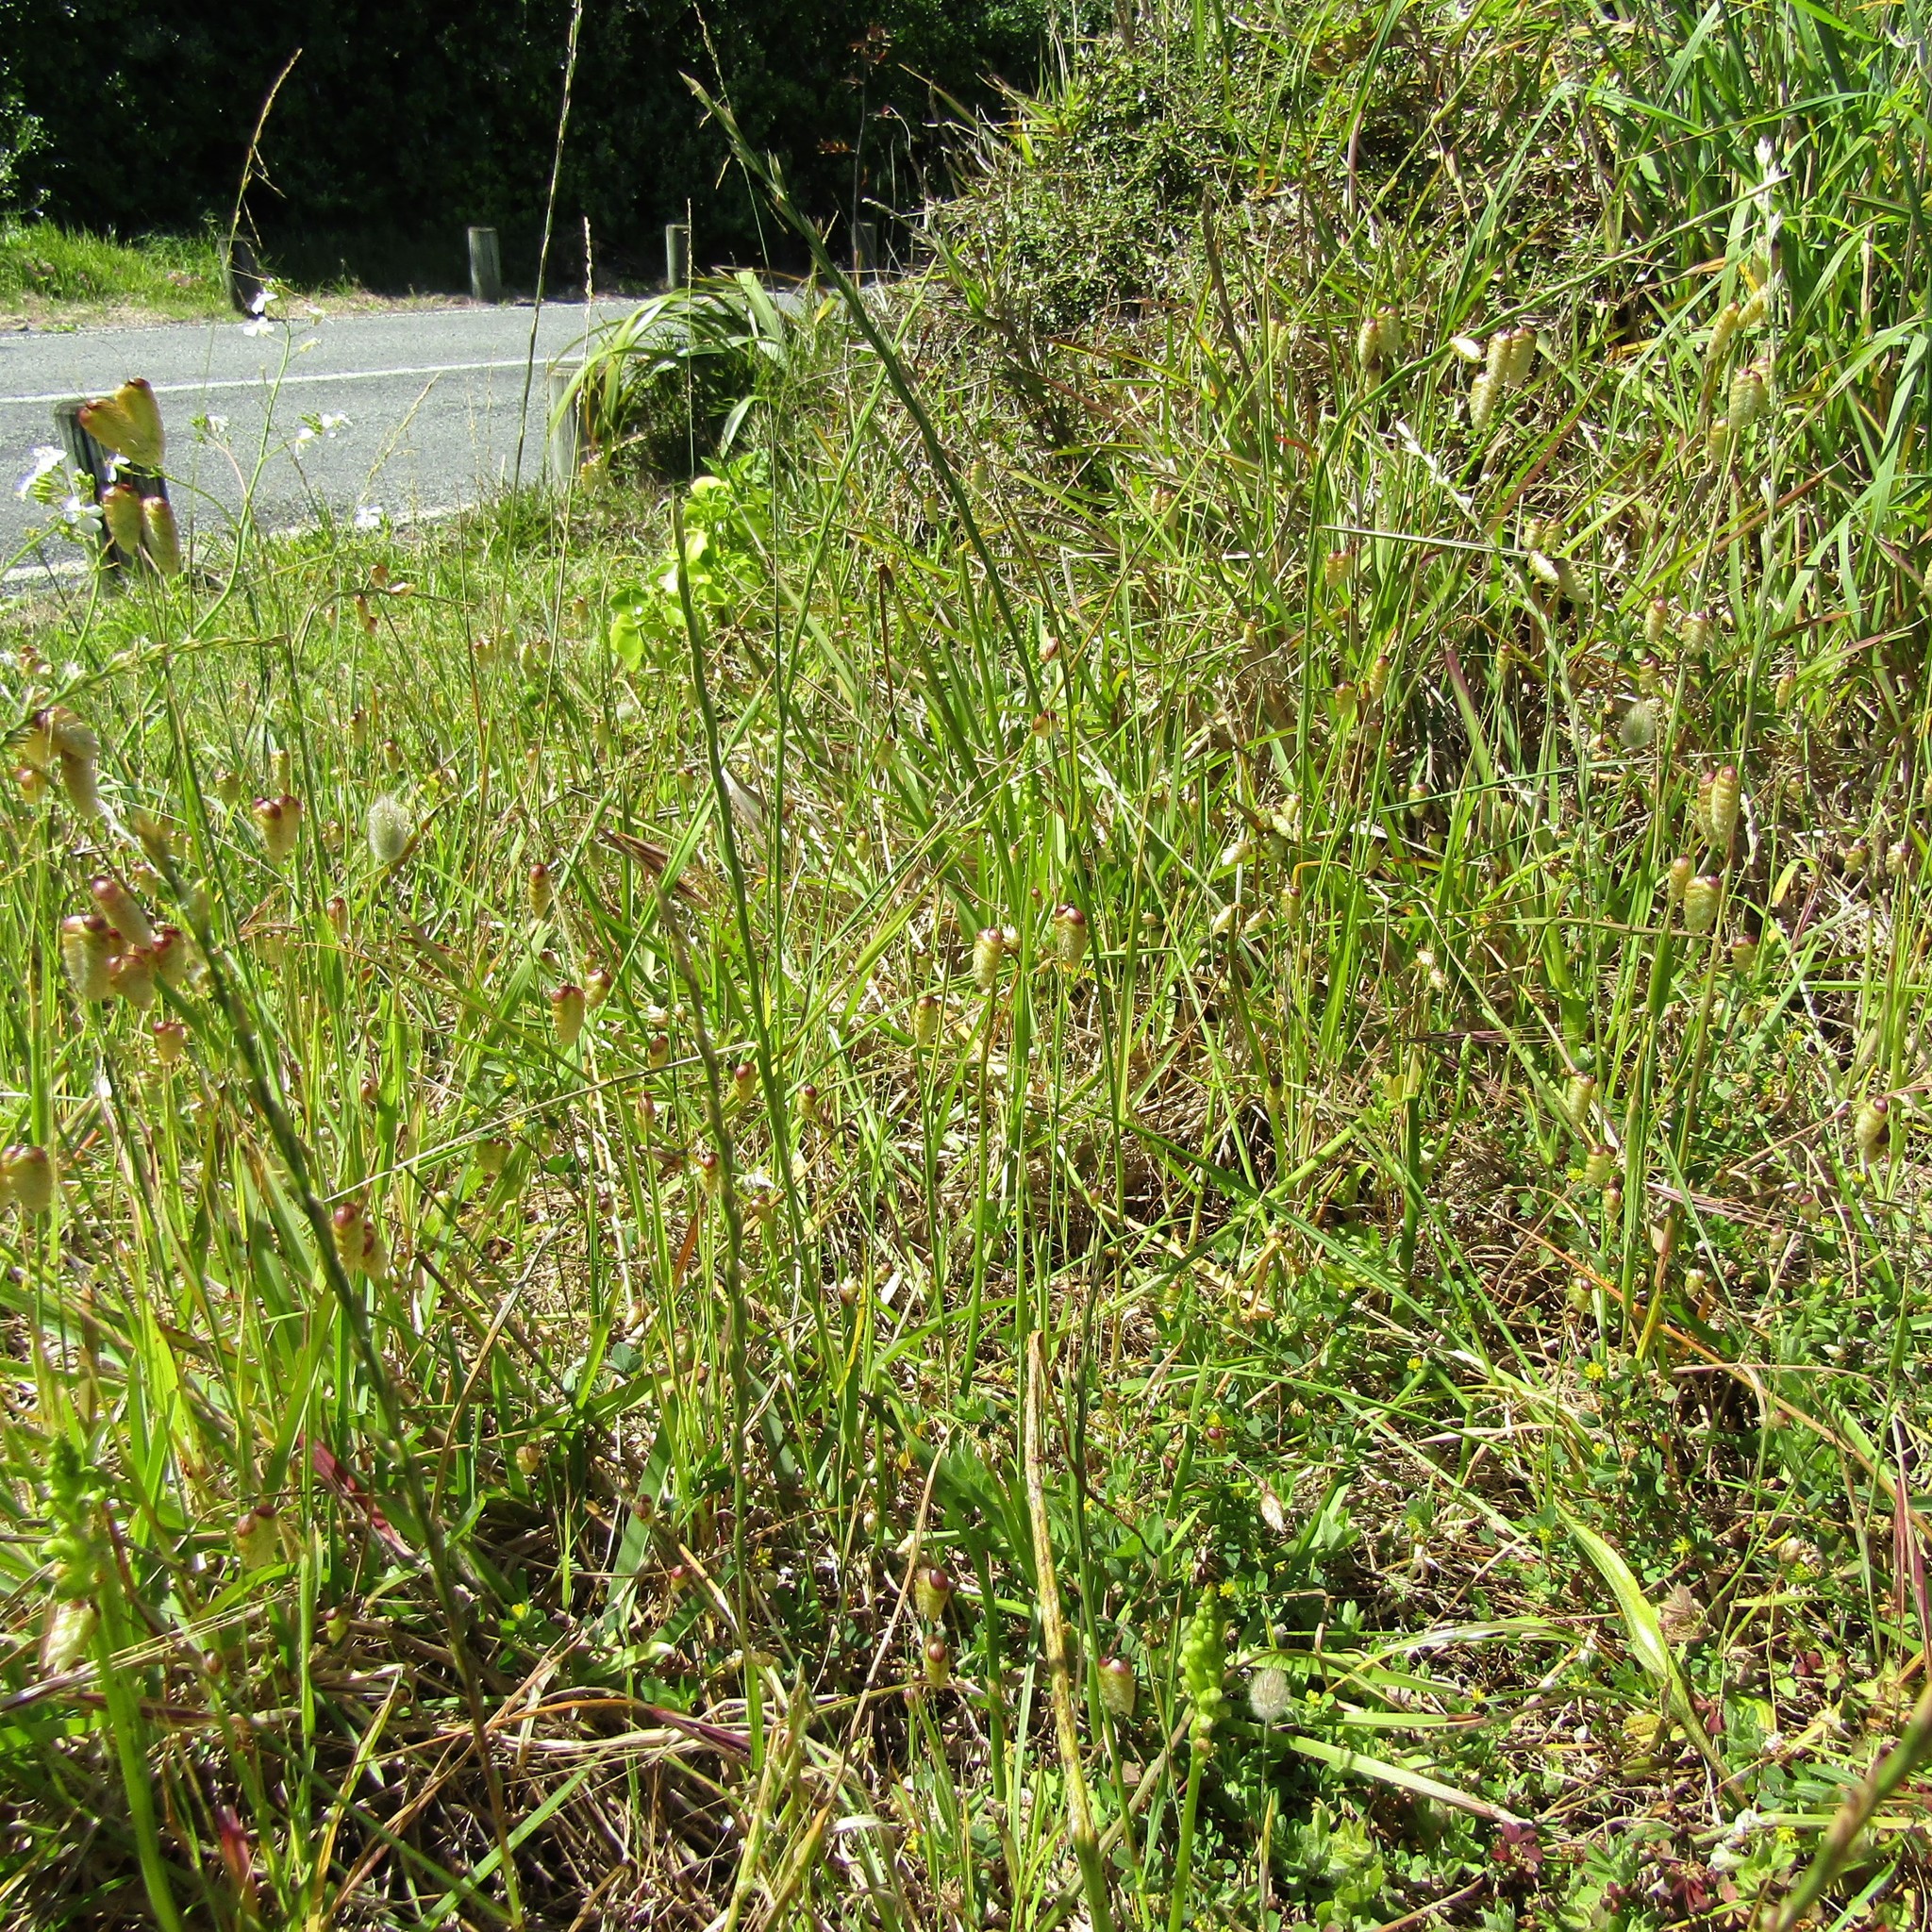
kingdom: Plantae
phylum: Tracheophyta
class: Liliopsida
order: Asparagales
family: Orchidaceae
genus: Microtis
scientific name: Microtis unifolia
